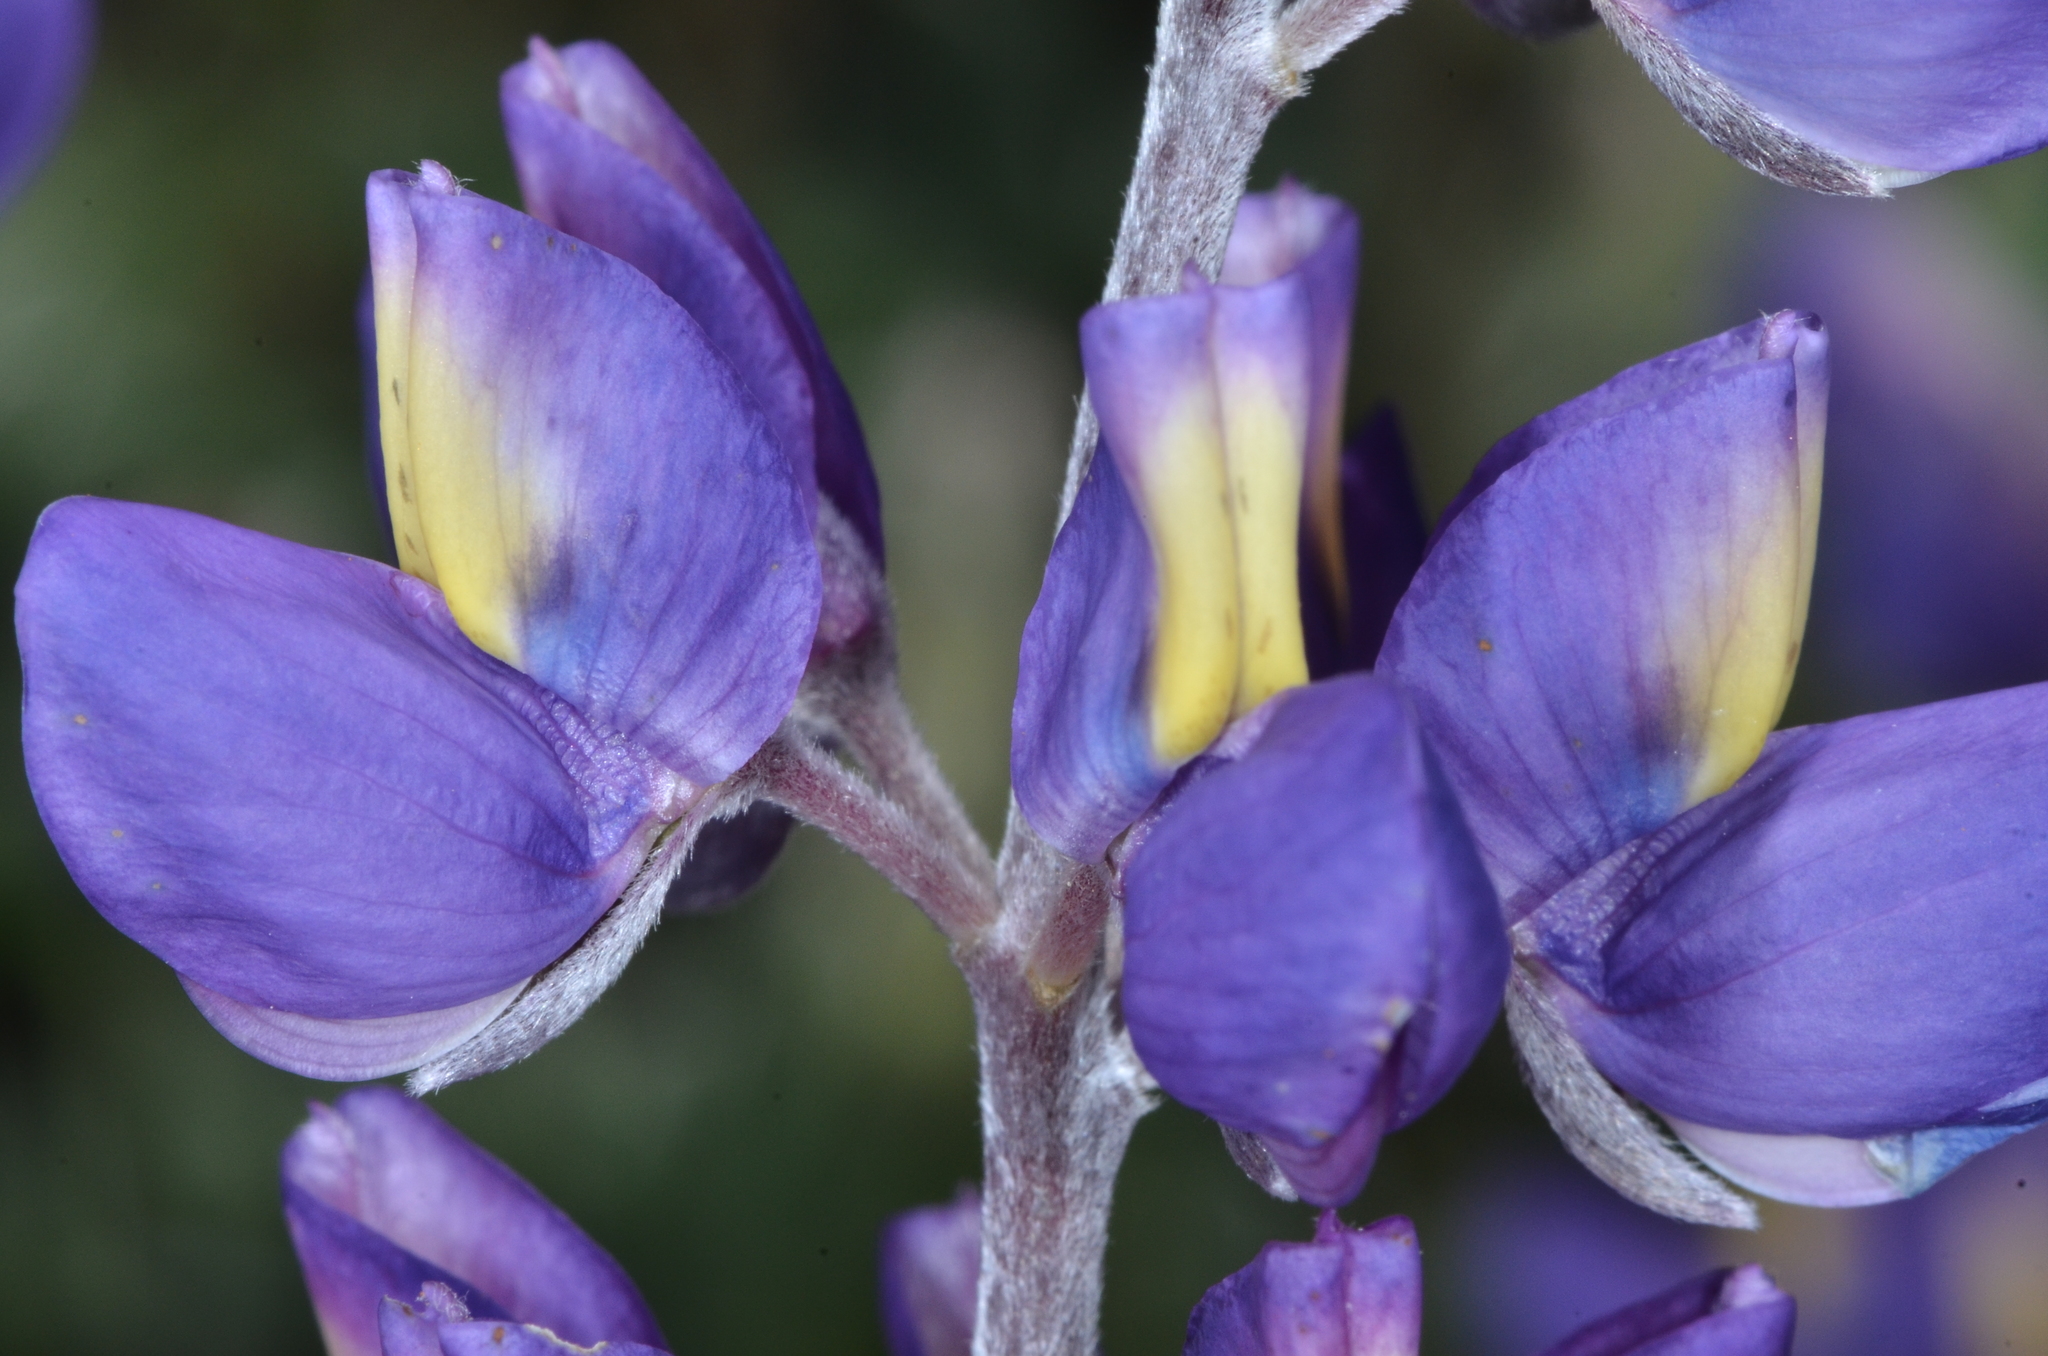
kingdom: Plantae
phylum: Tracheophyta
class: Magnoliopsida
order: Fabales
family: Fabaceae
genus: Lupinus
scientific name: Lupinus albifrons
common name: Foothill lupine
